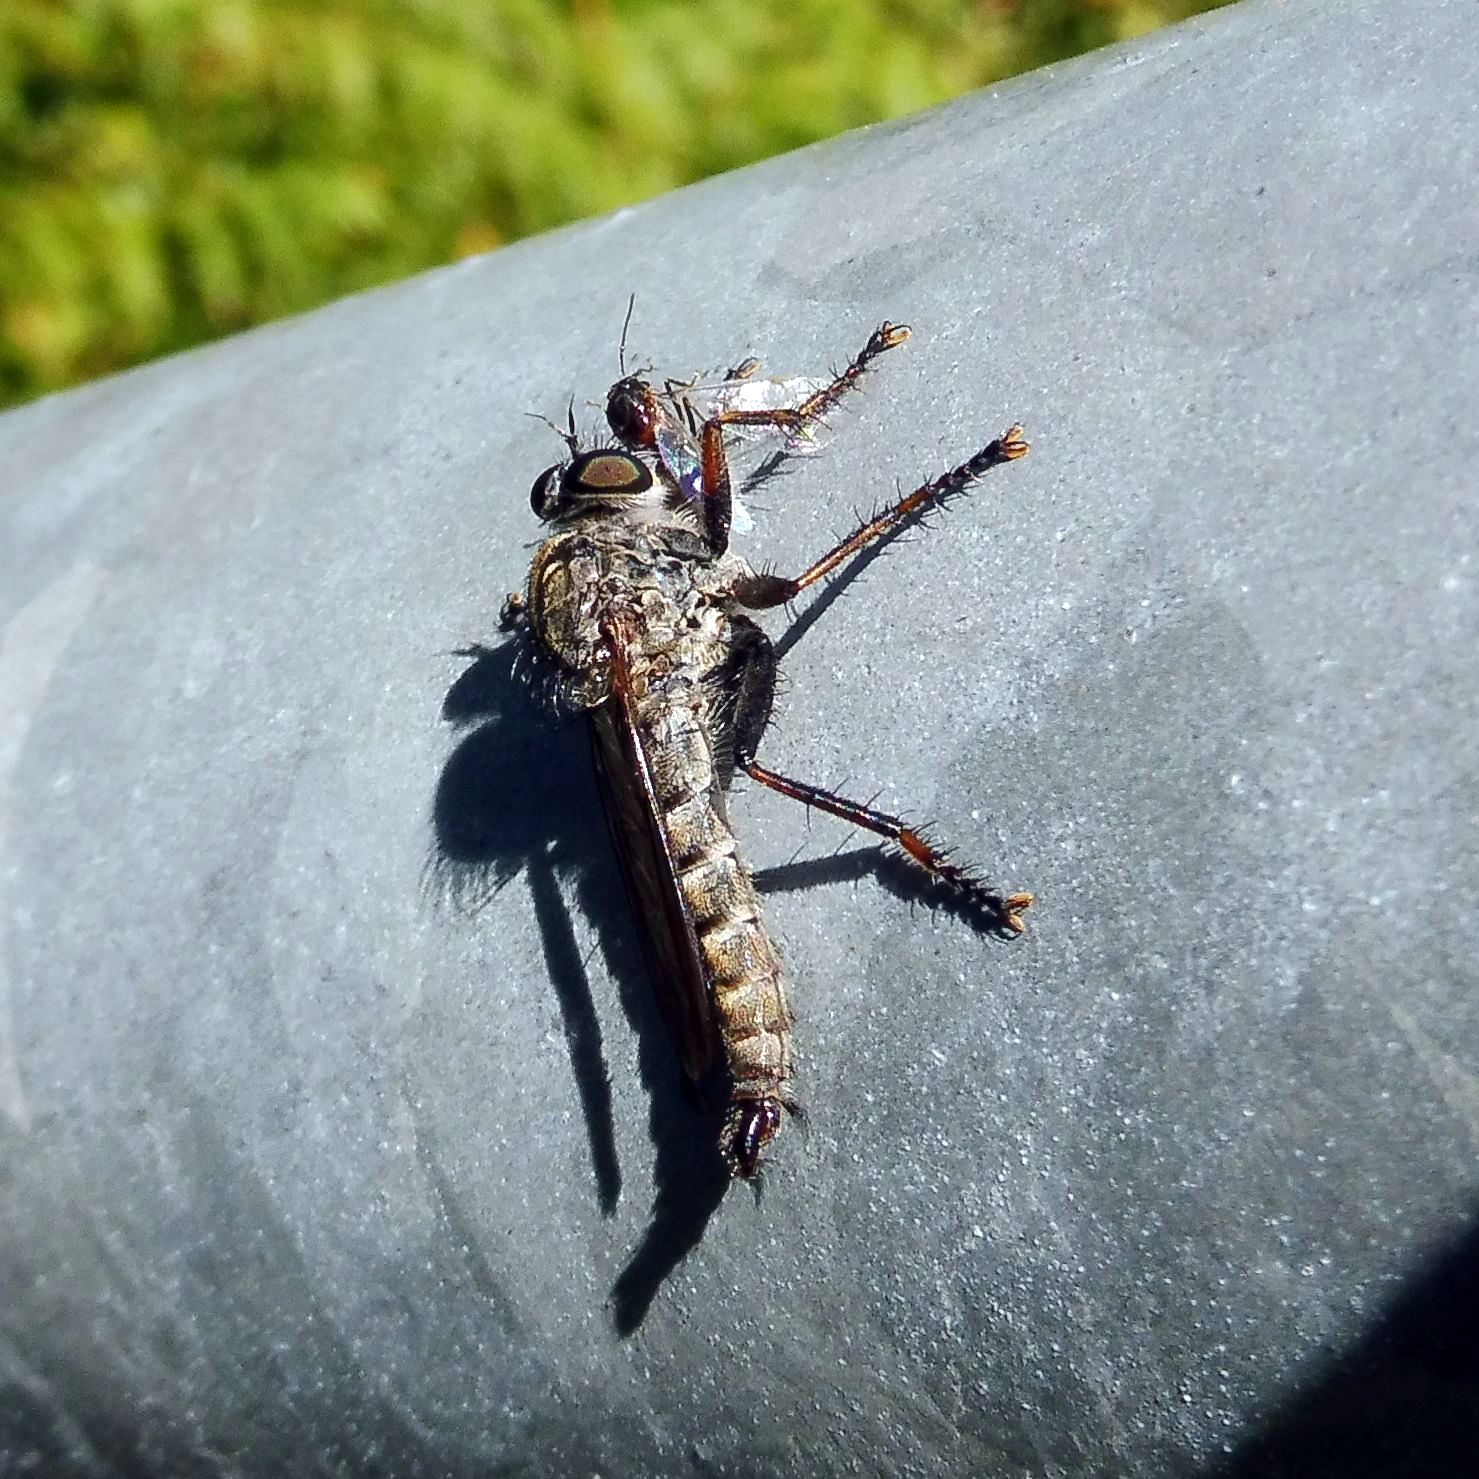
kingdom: Animalia
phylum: Arthropoda
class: Insecta
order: Diptera
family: Asilidae
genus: Machimus
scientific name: Machimus atricapillus
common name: Kite-tailed robberfly
